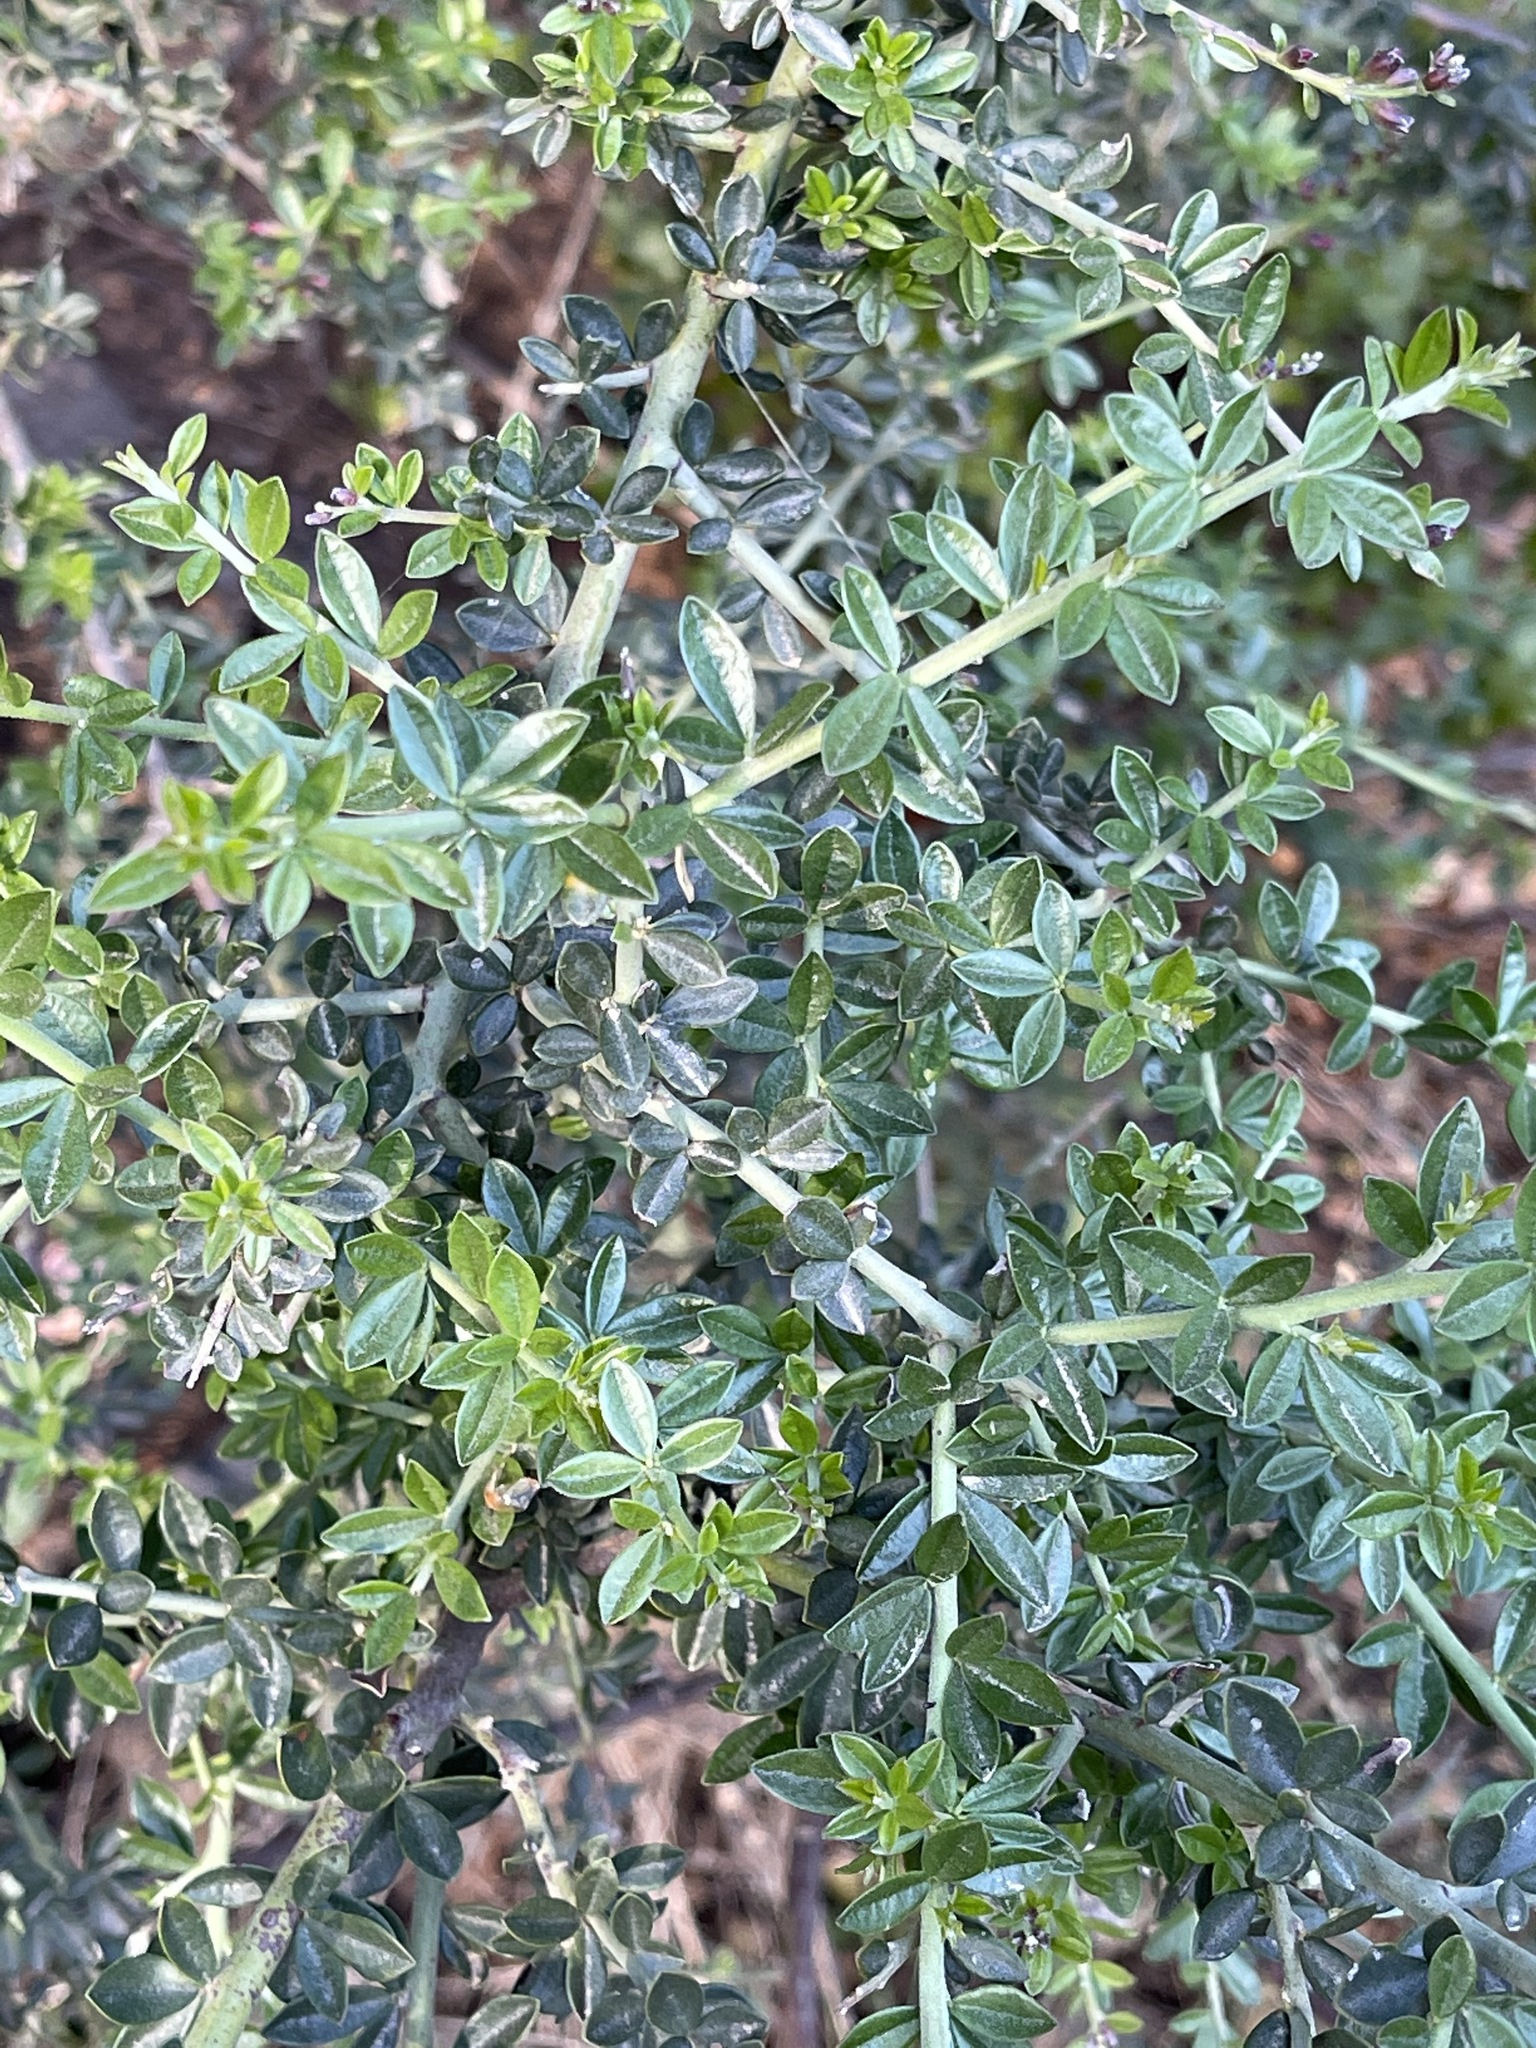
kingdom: Plantae
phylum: Tracheophyta
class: Magnoliopsida
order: Fabales
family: Fabaceae
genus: Pickeringia
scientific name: Pickeringia montana
